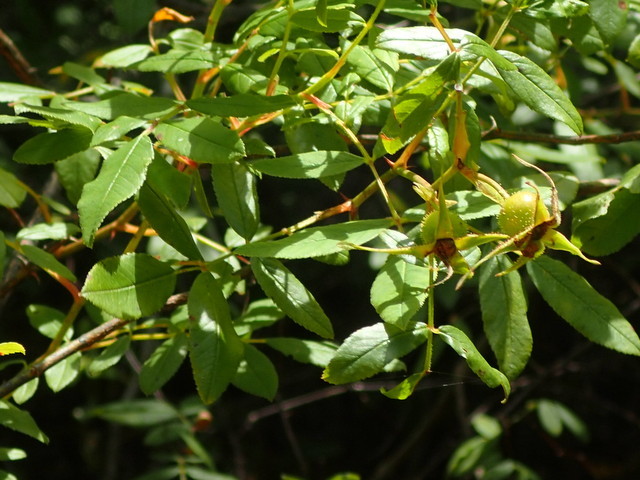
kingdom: Plantae
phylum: Tracheophyta
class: Magnoliopsida
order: Rosales
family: Rosaceae
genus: Rosa
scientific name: Rosa palustris
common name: Swamp rose
